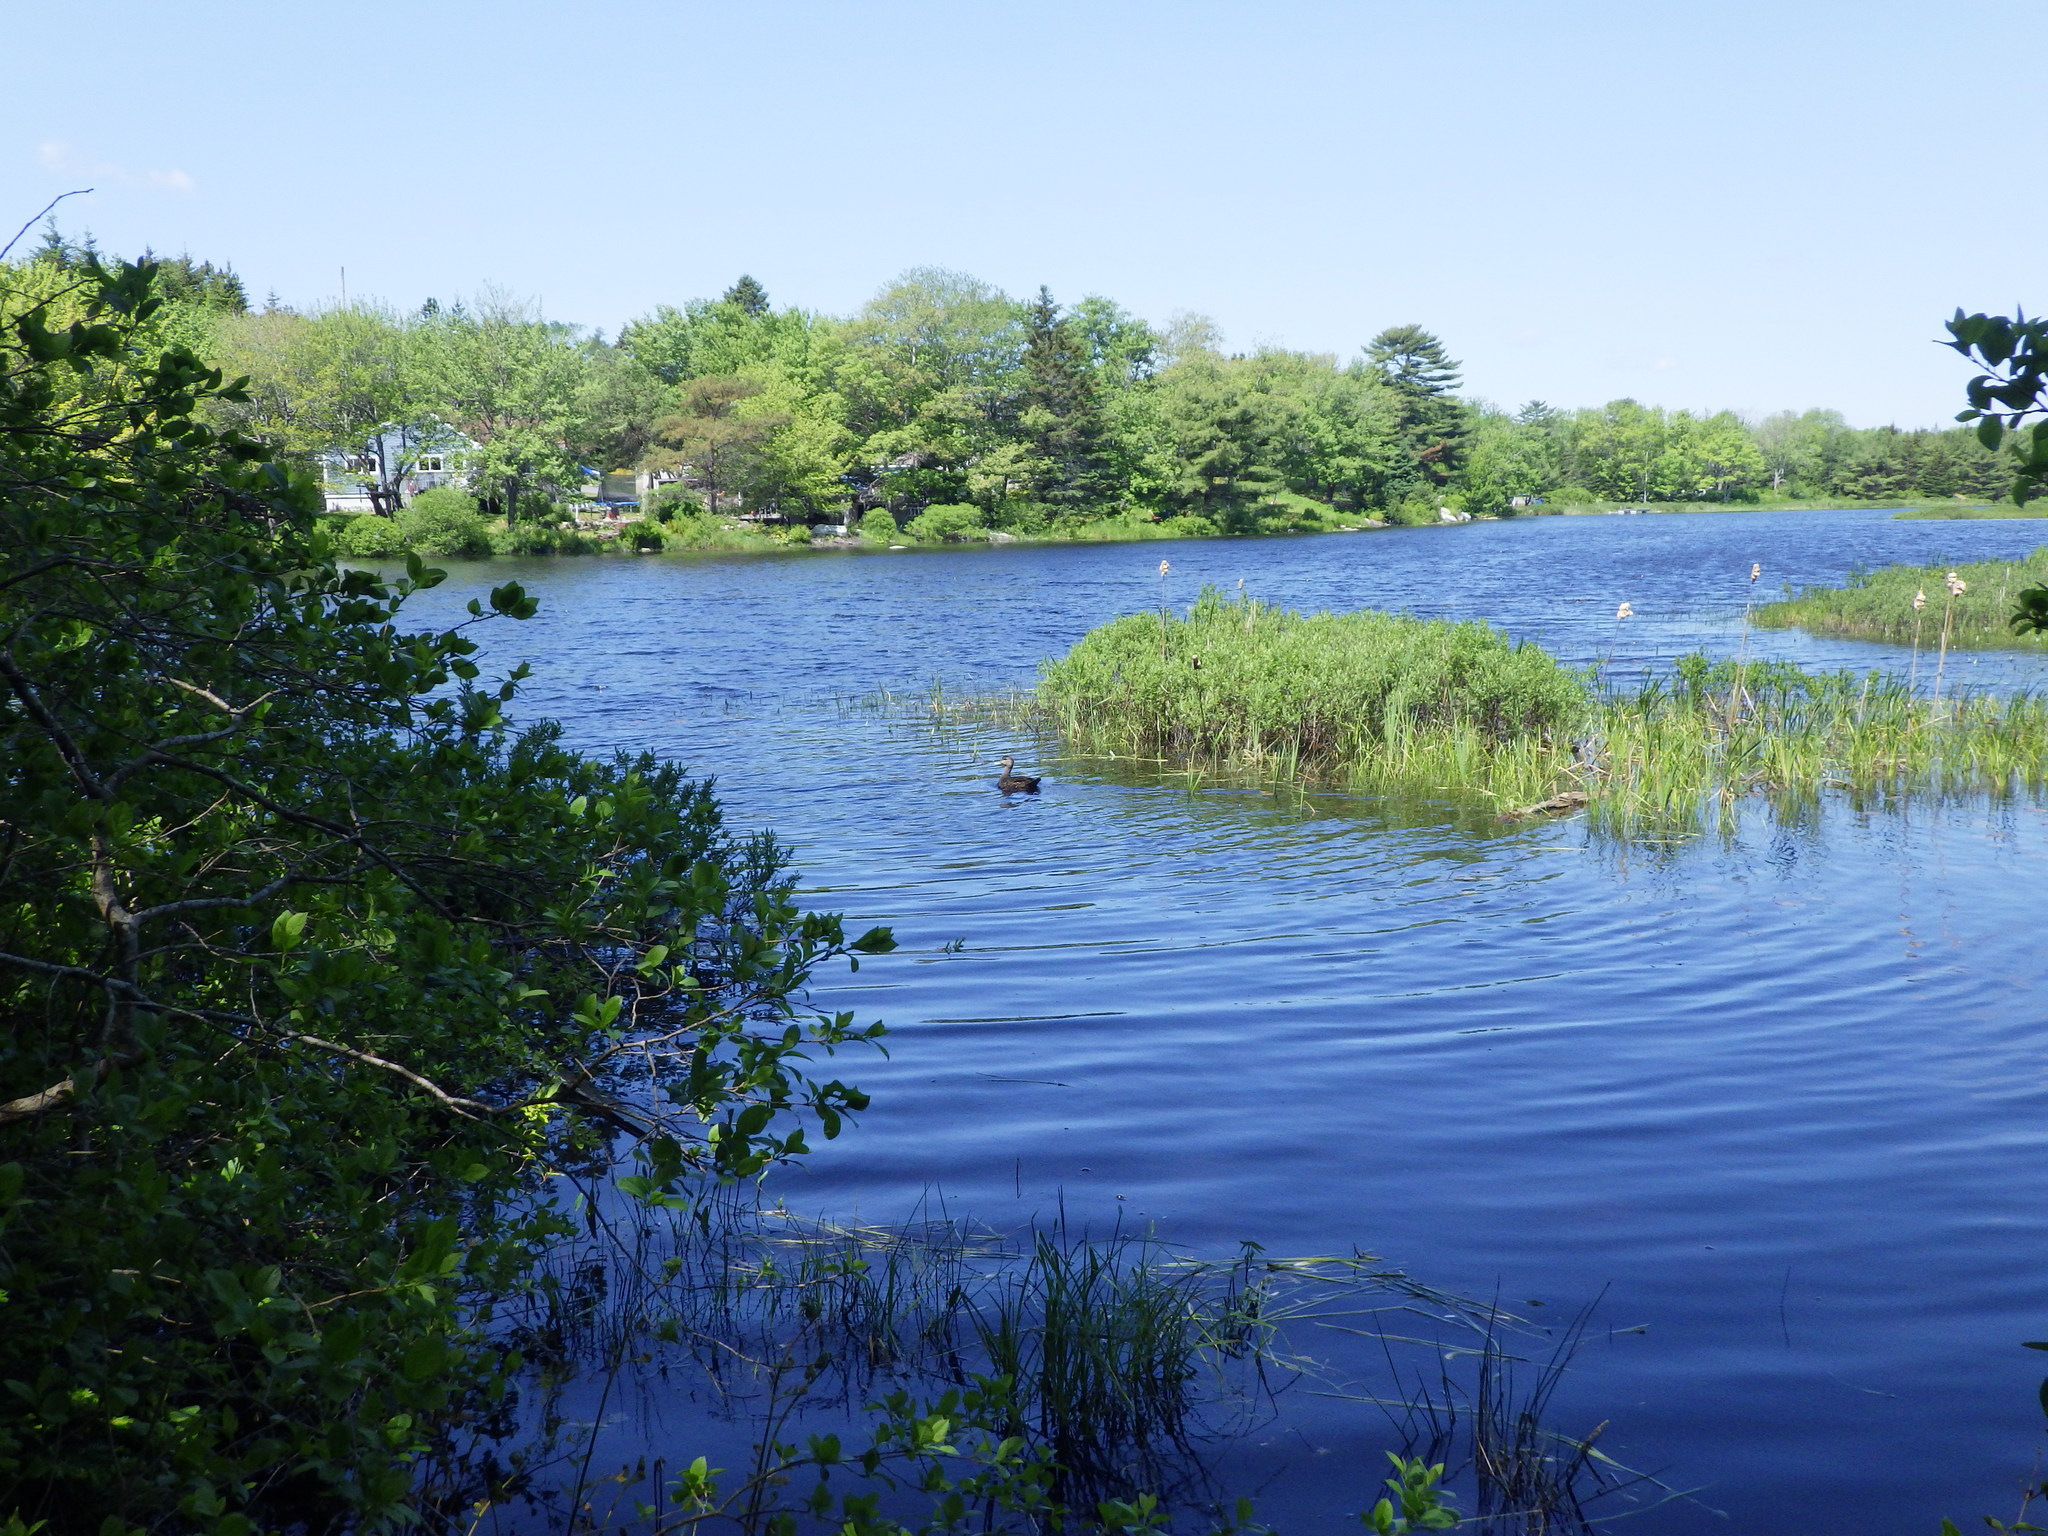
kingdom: Animalia
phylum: Chordata
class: Aves
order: Anseriformes
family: Anatidae
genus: Anas
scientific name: Anas rubripes
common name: American black duck
